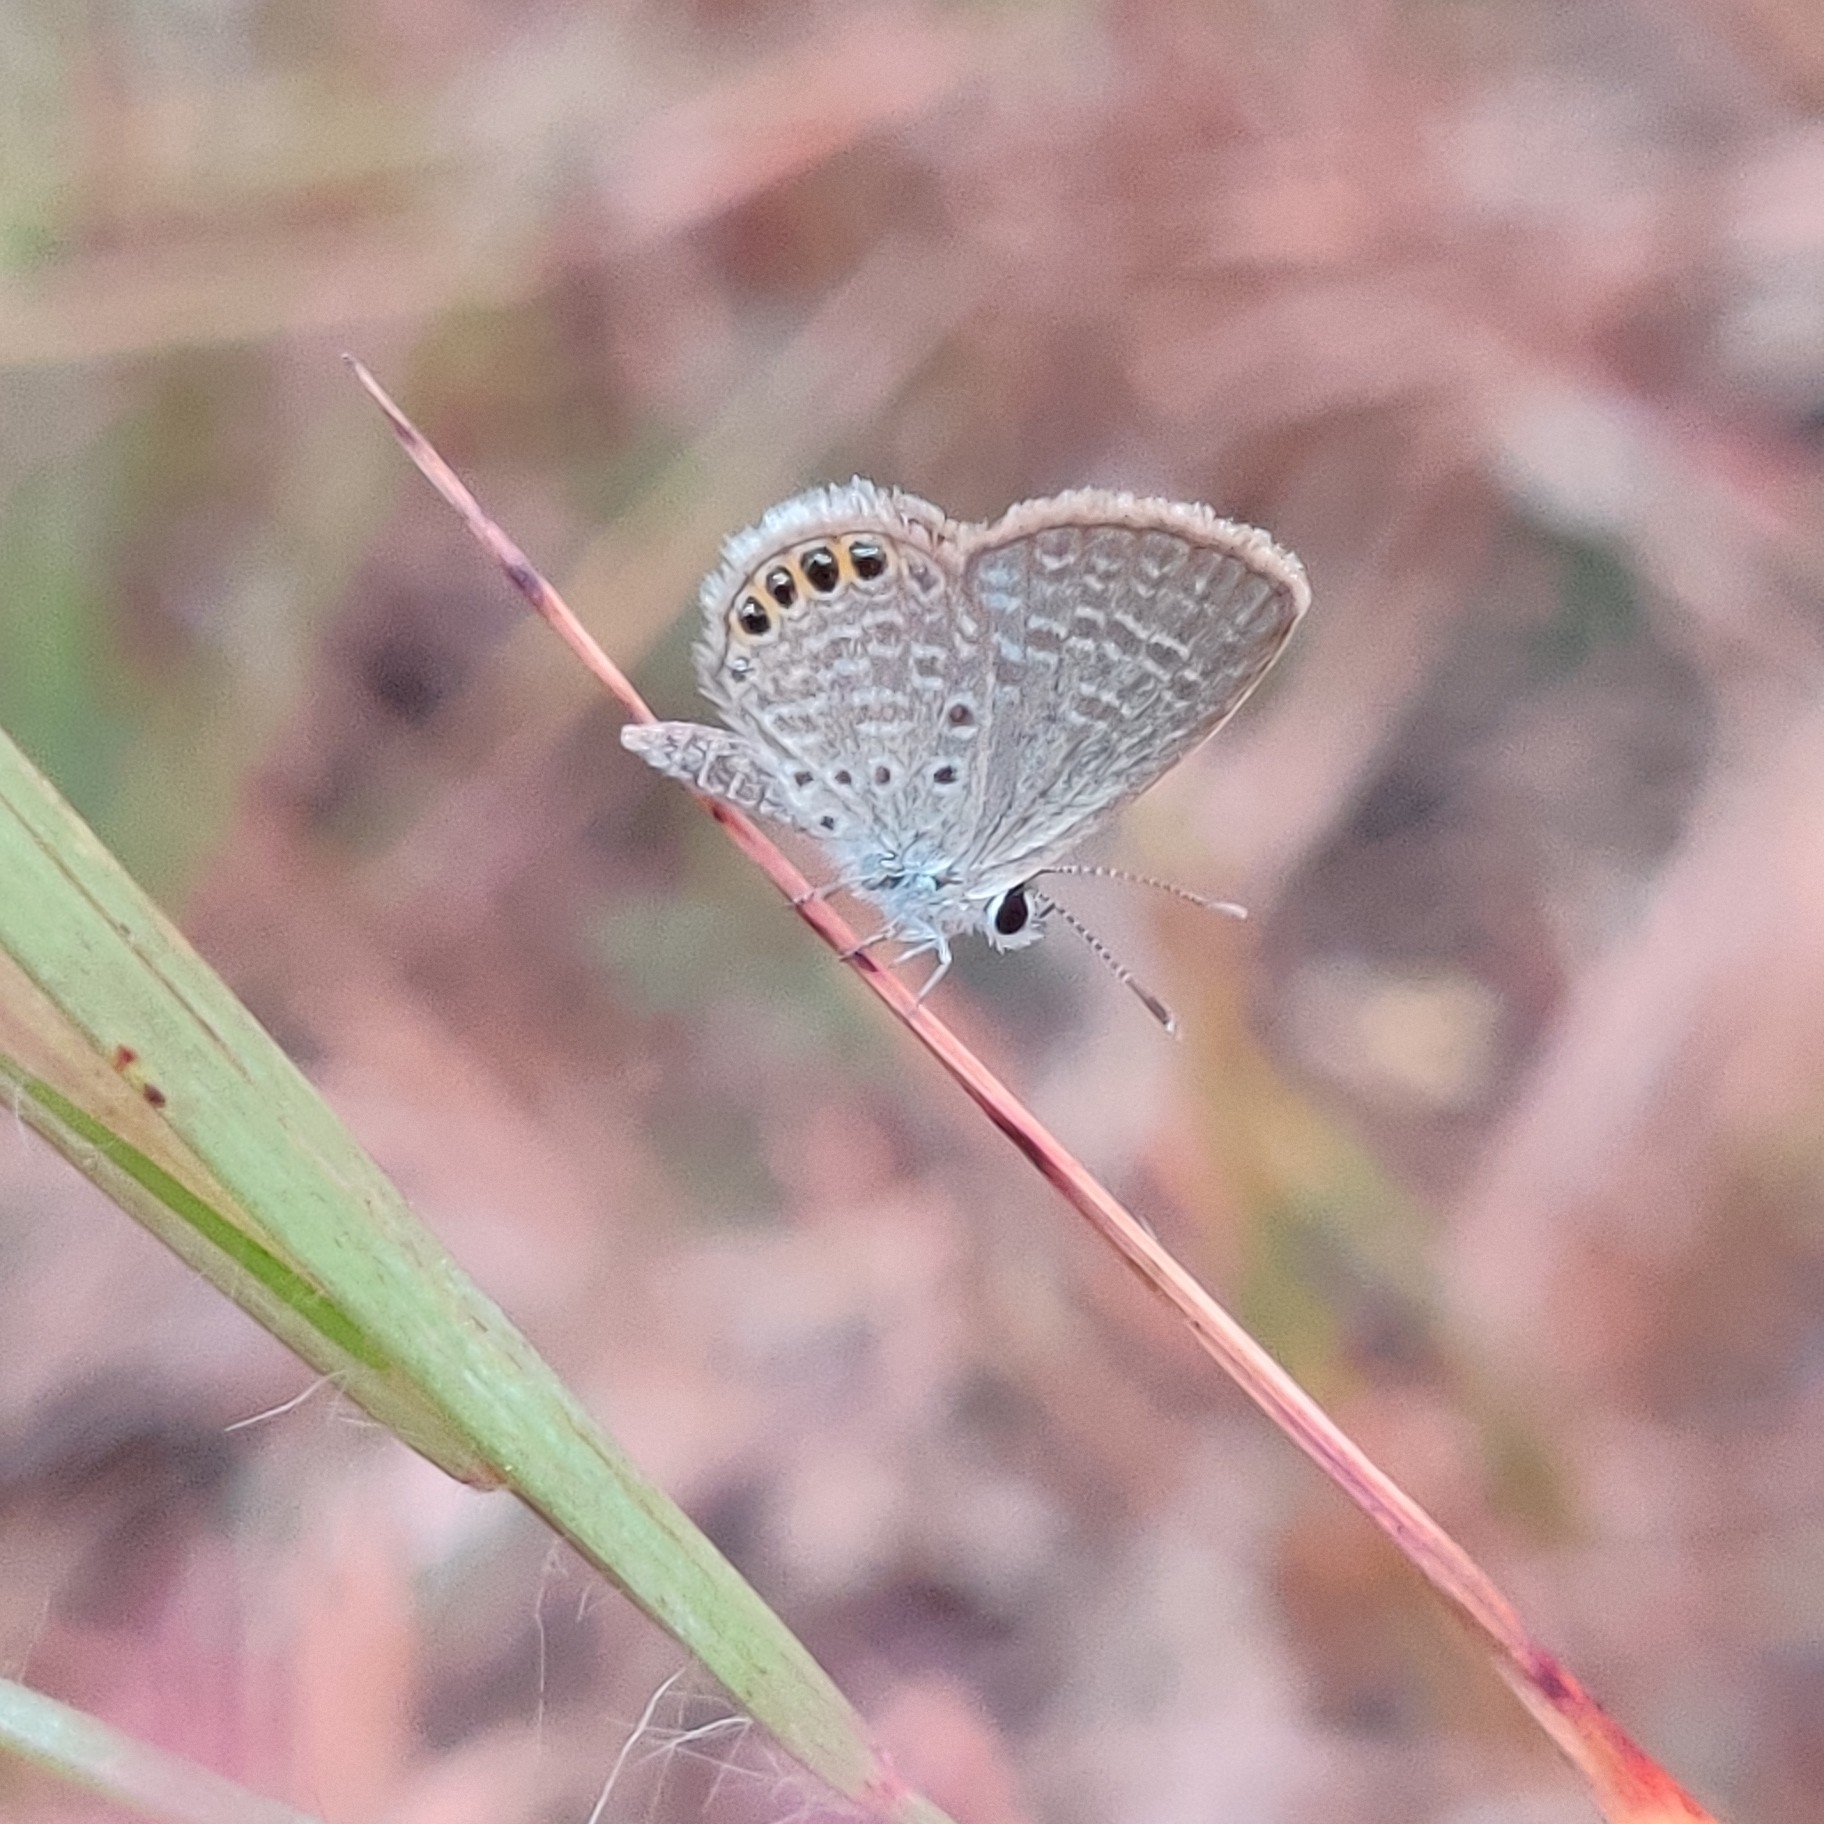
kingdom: Animalia
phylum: Arthropoda
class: Insecta
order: Lepidoptera
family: Lycaenidae
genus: Freyeria
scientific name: Freyeria putli
